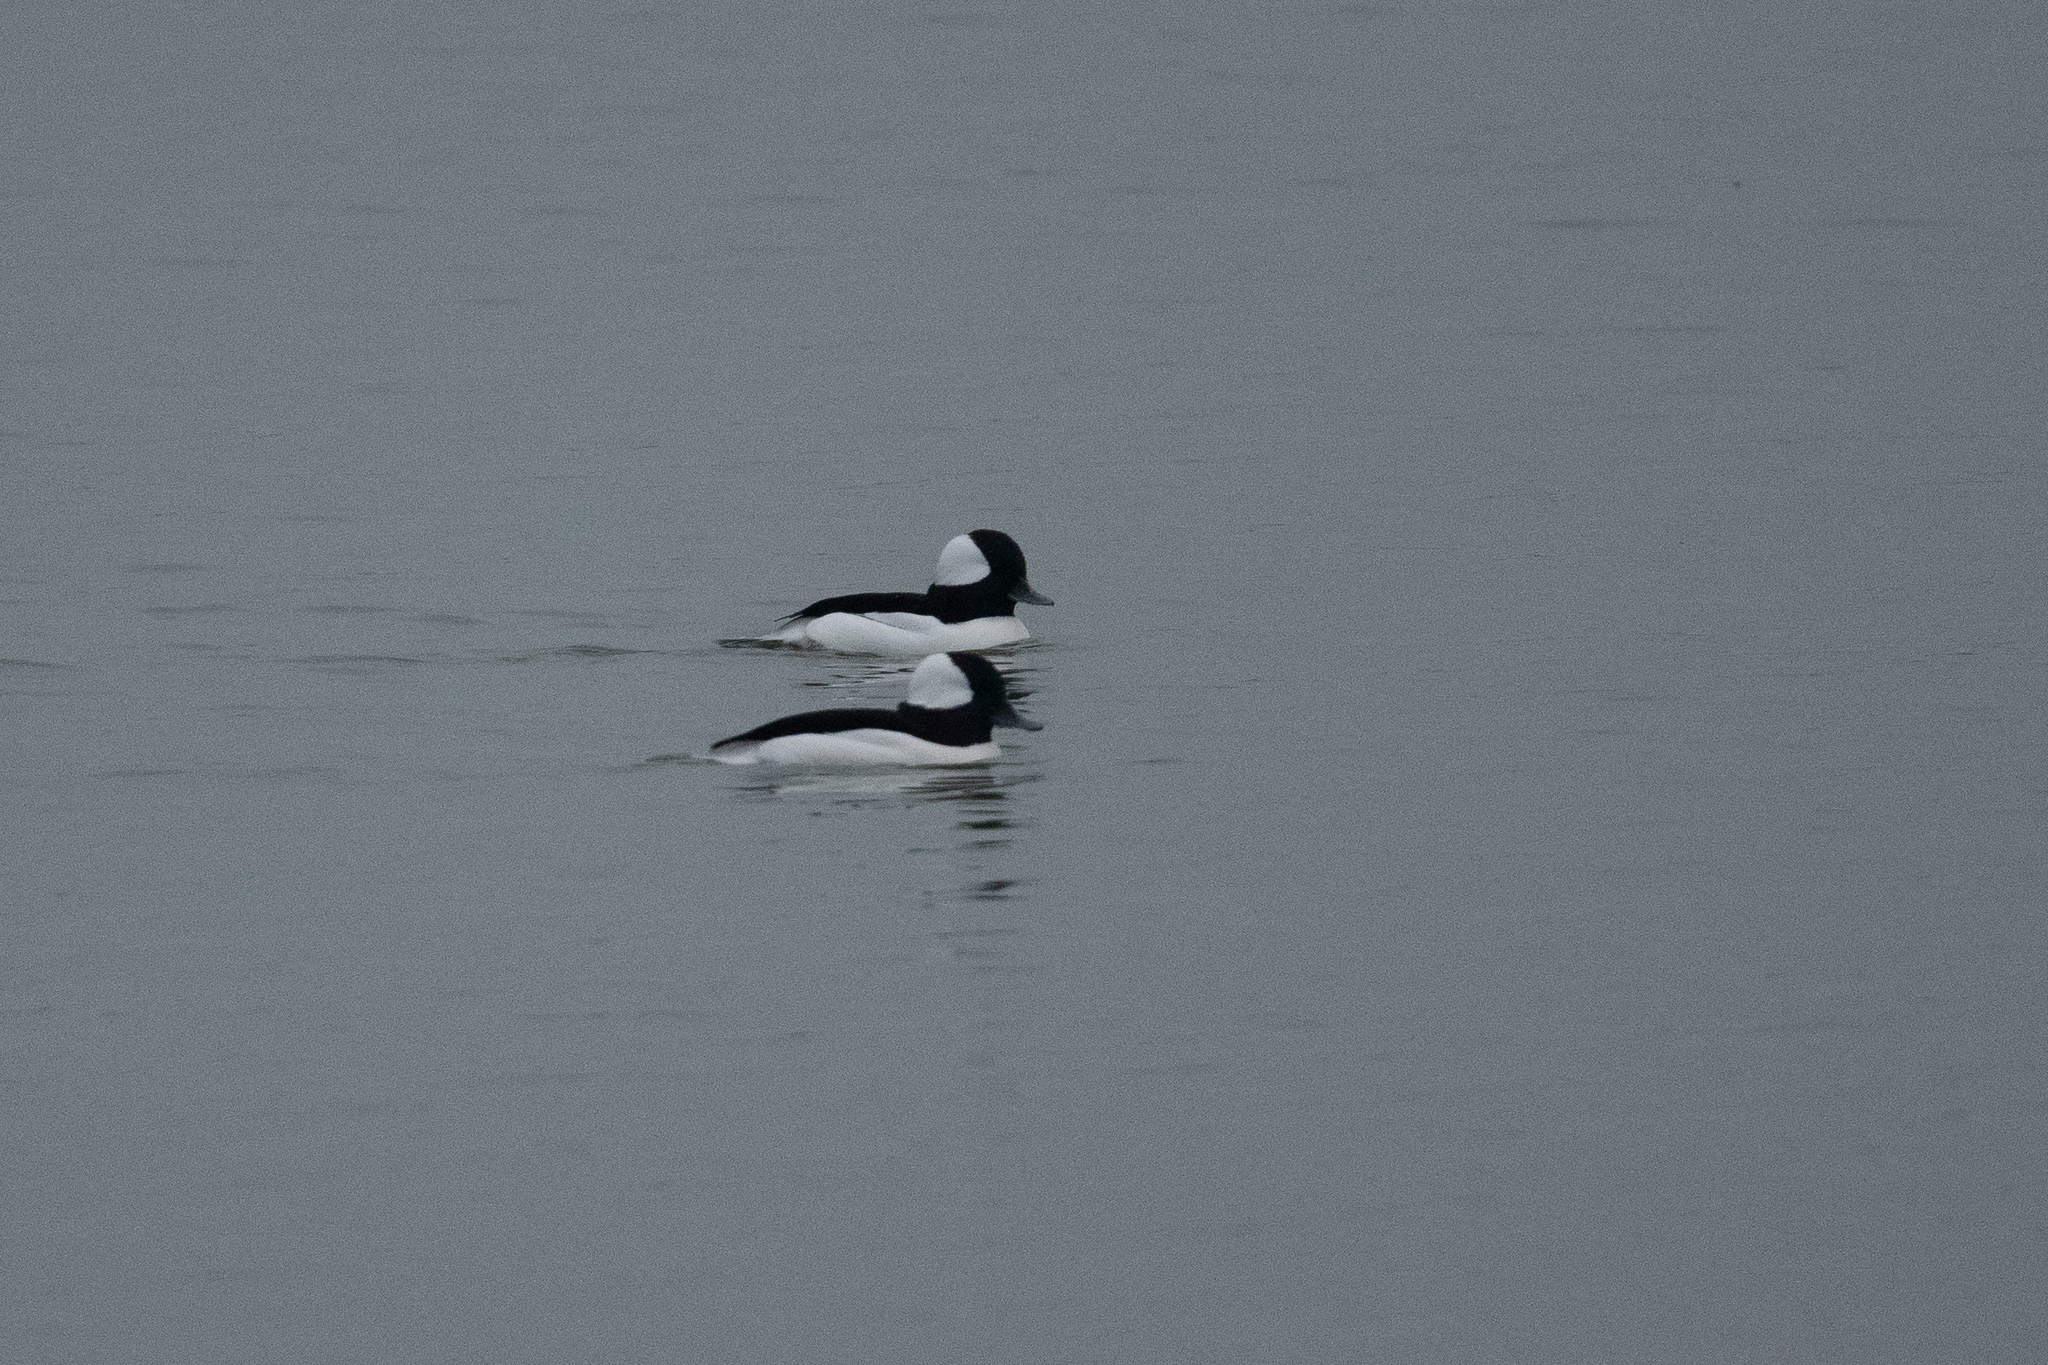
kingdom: Animalia
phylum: Chordata
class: Aves
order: Anseriformes
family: Anatidae
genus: Bucephala
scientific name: Bucephala albeola
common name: Bufflehead
